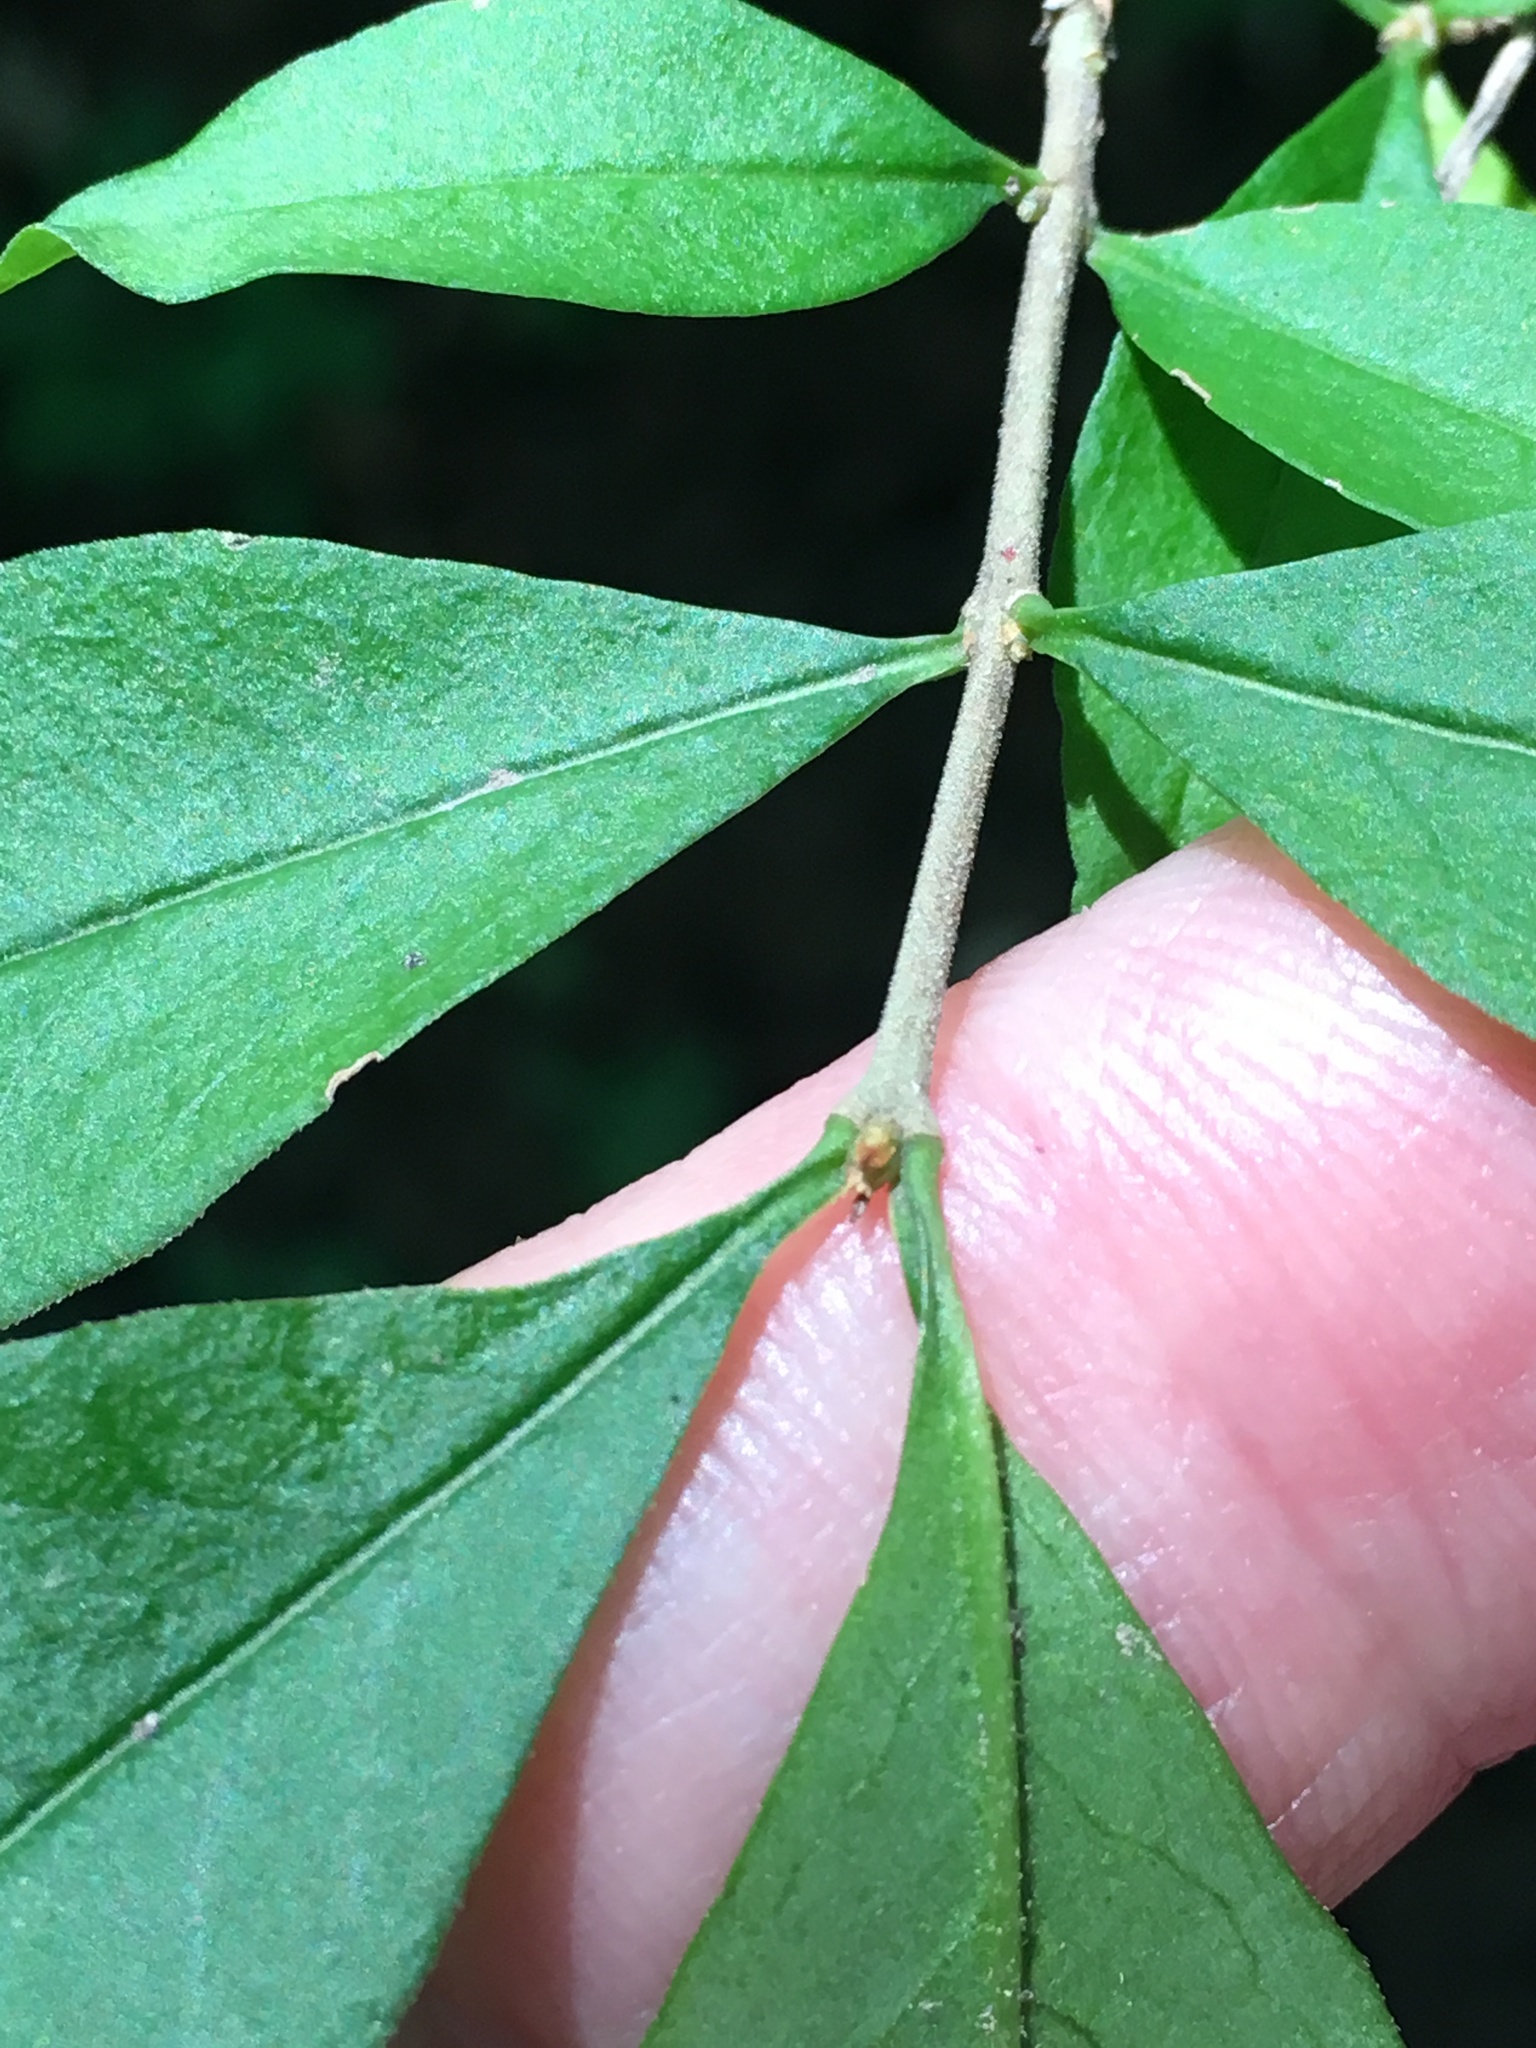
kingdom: Plantae
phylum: Tracheophyta
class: Magnoliopsida
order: Lamiales
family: Oleaceae
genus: Ligustrum
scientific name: Ligustrum obtusifolium
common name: Border privet
